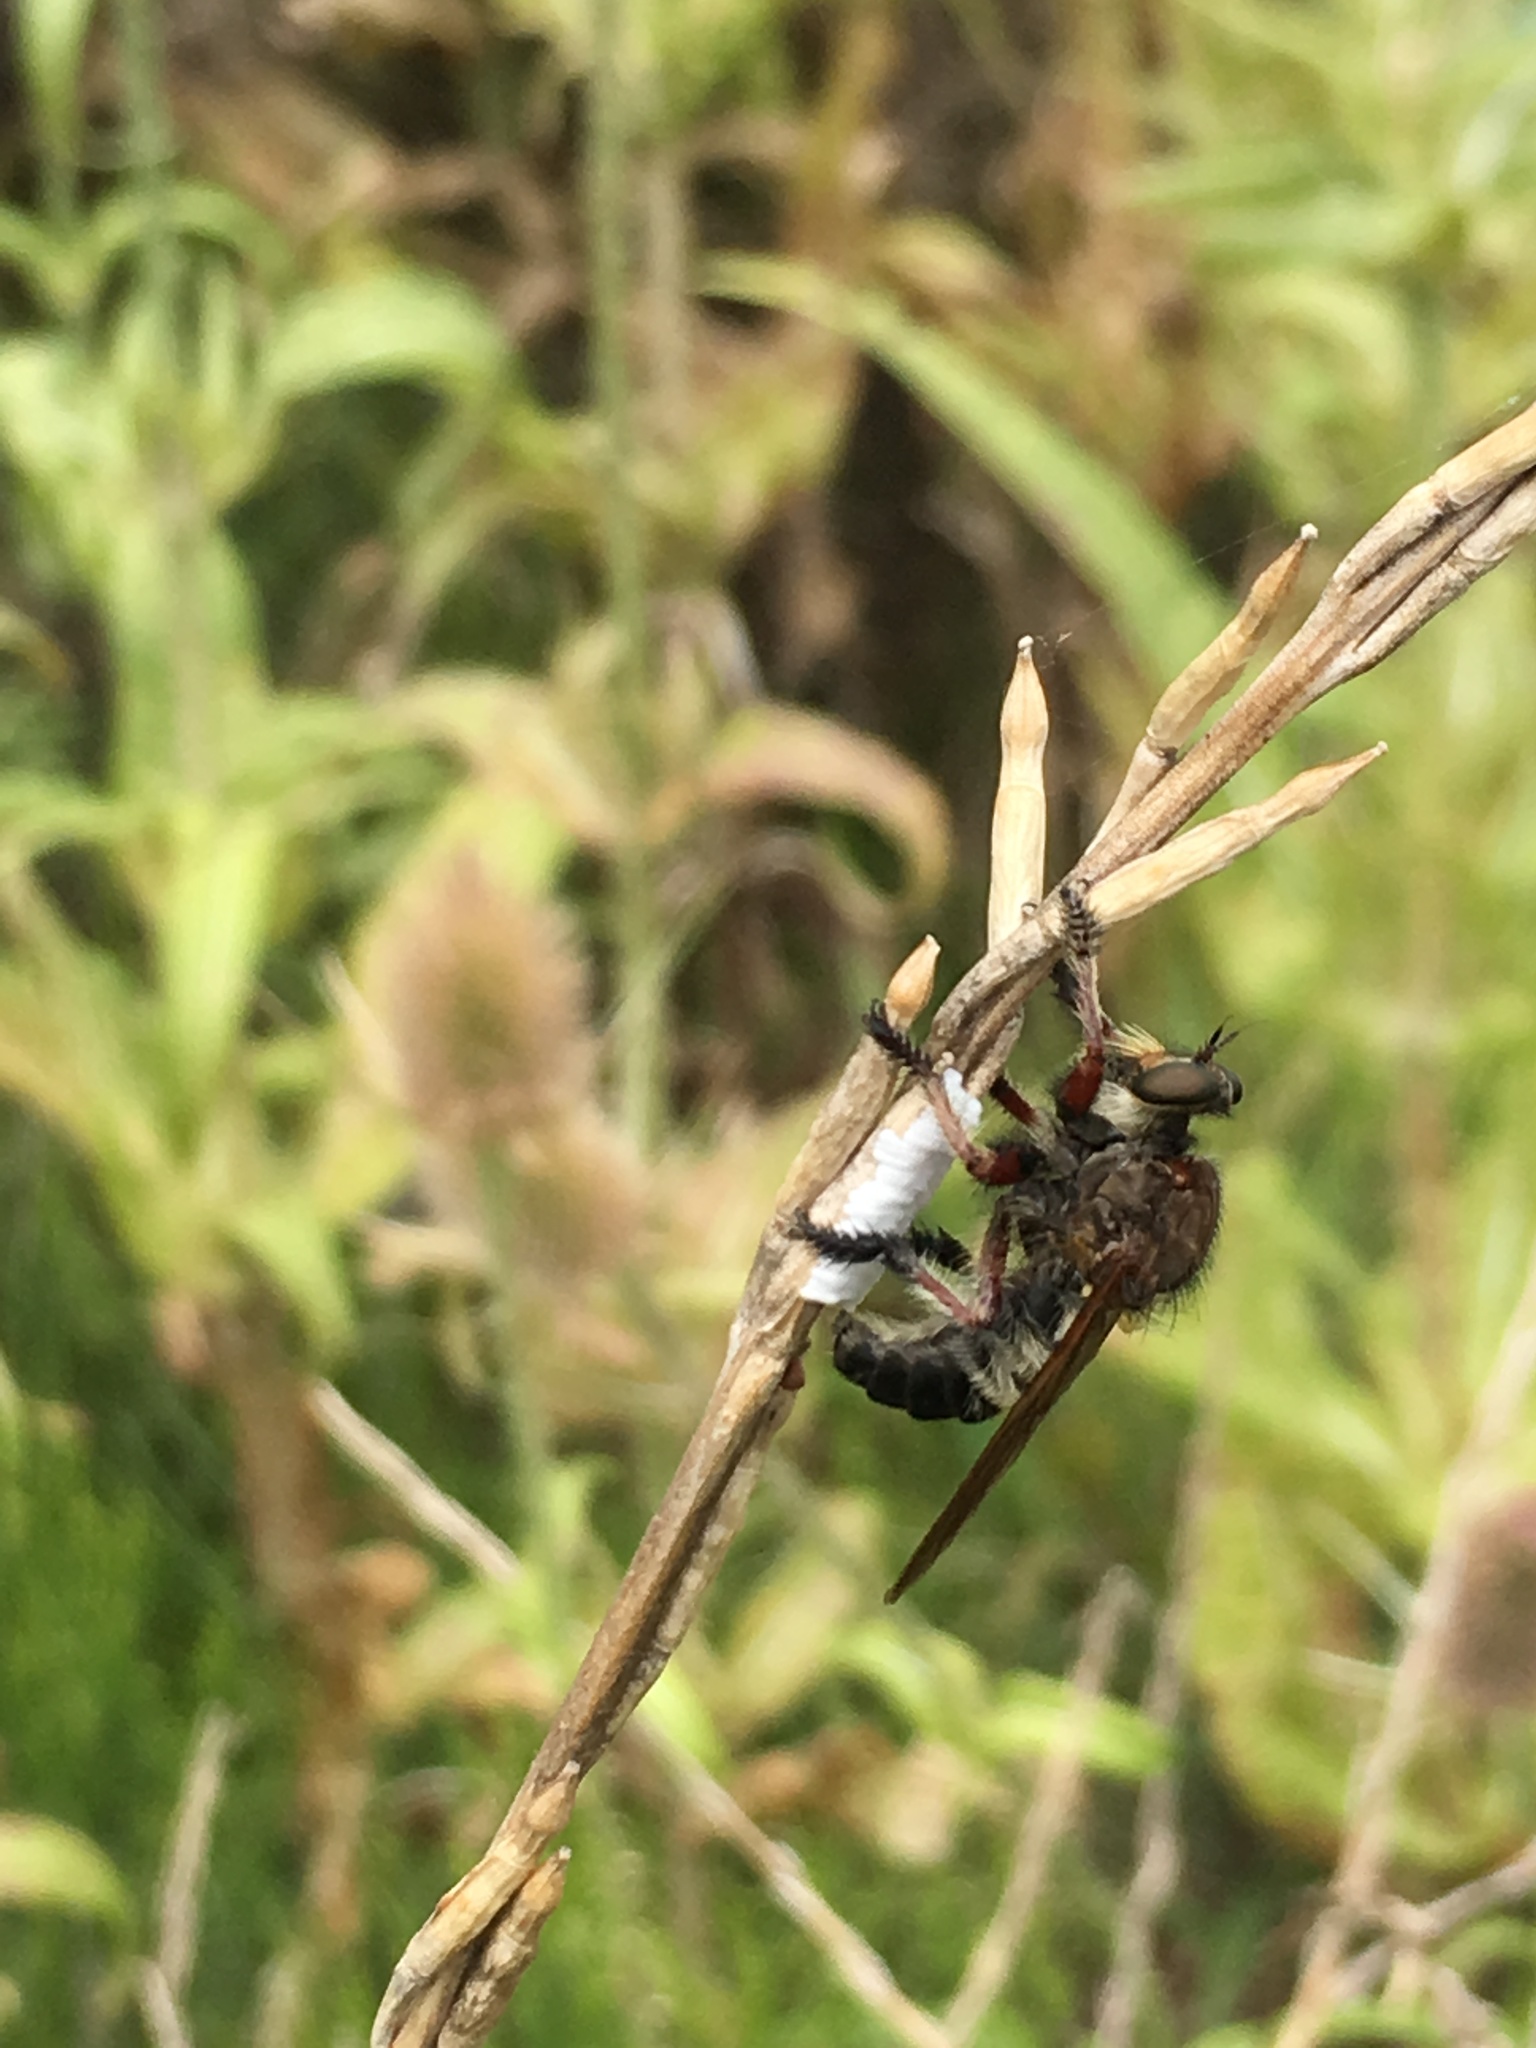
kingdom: Animalia
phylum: Arthropoda
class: Insecta
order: Diptera
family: Asilidae
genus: Mallophora
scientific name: Mallophora bigotii
